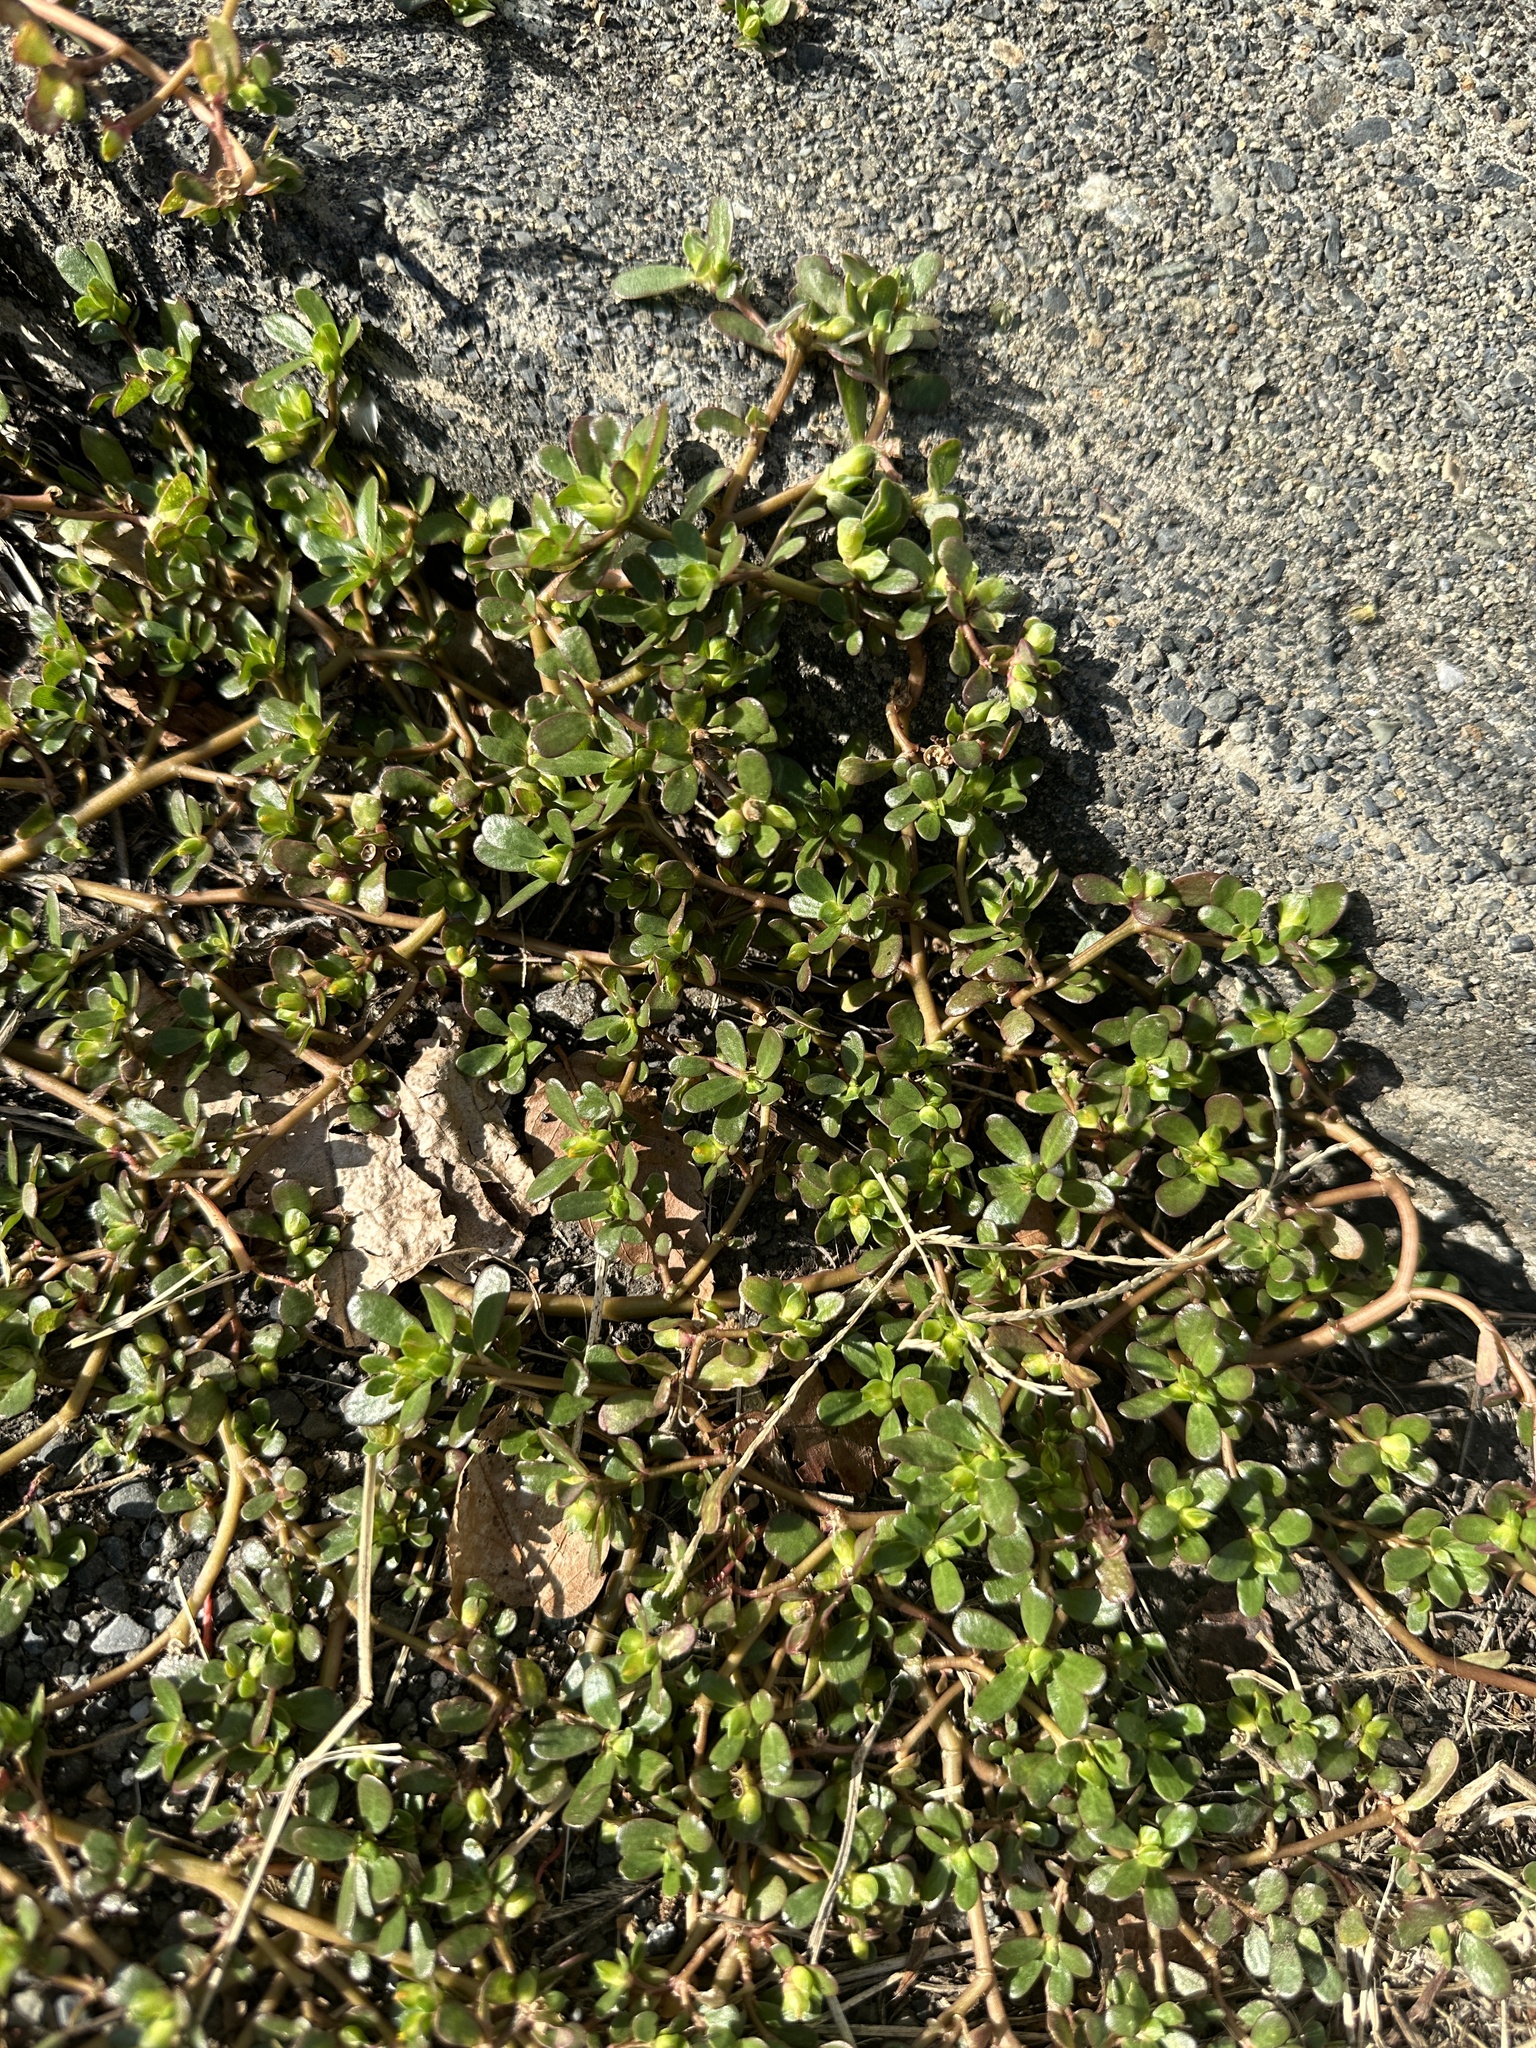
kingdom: Plantae
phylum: Tracheophyta
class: Magnoliopsida
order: Caryophyllales
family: Portulacaceae
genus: Portulaca
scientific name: Portulaca oleracea
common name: Common purslane
